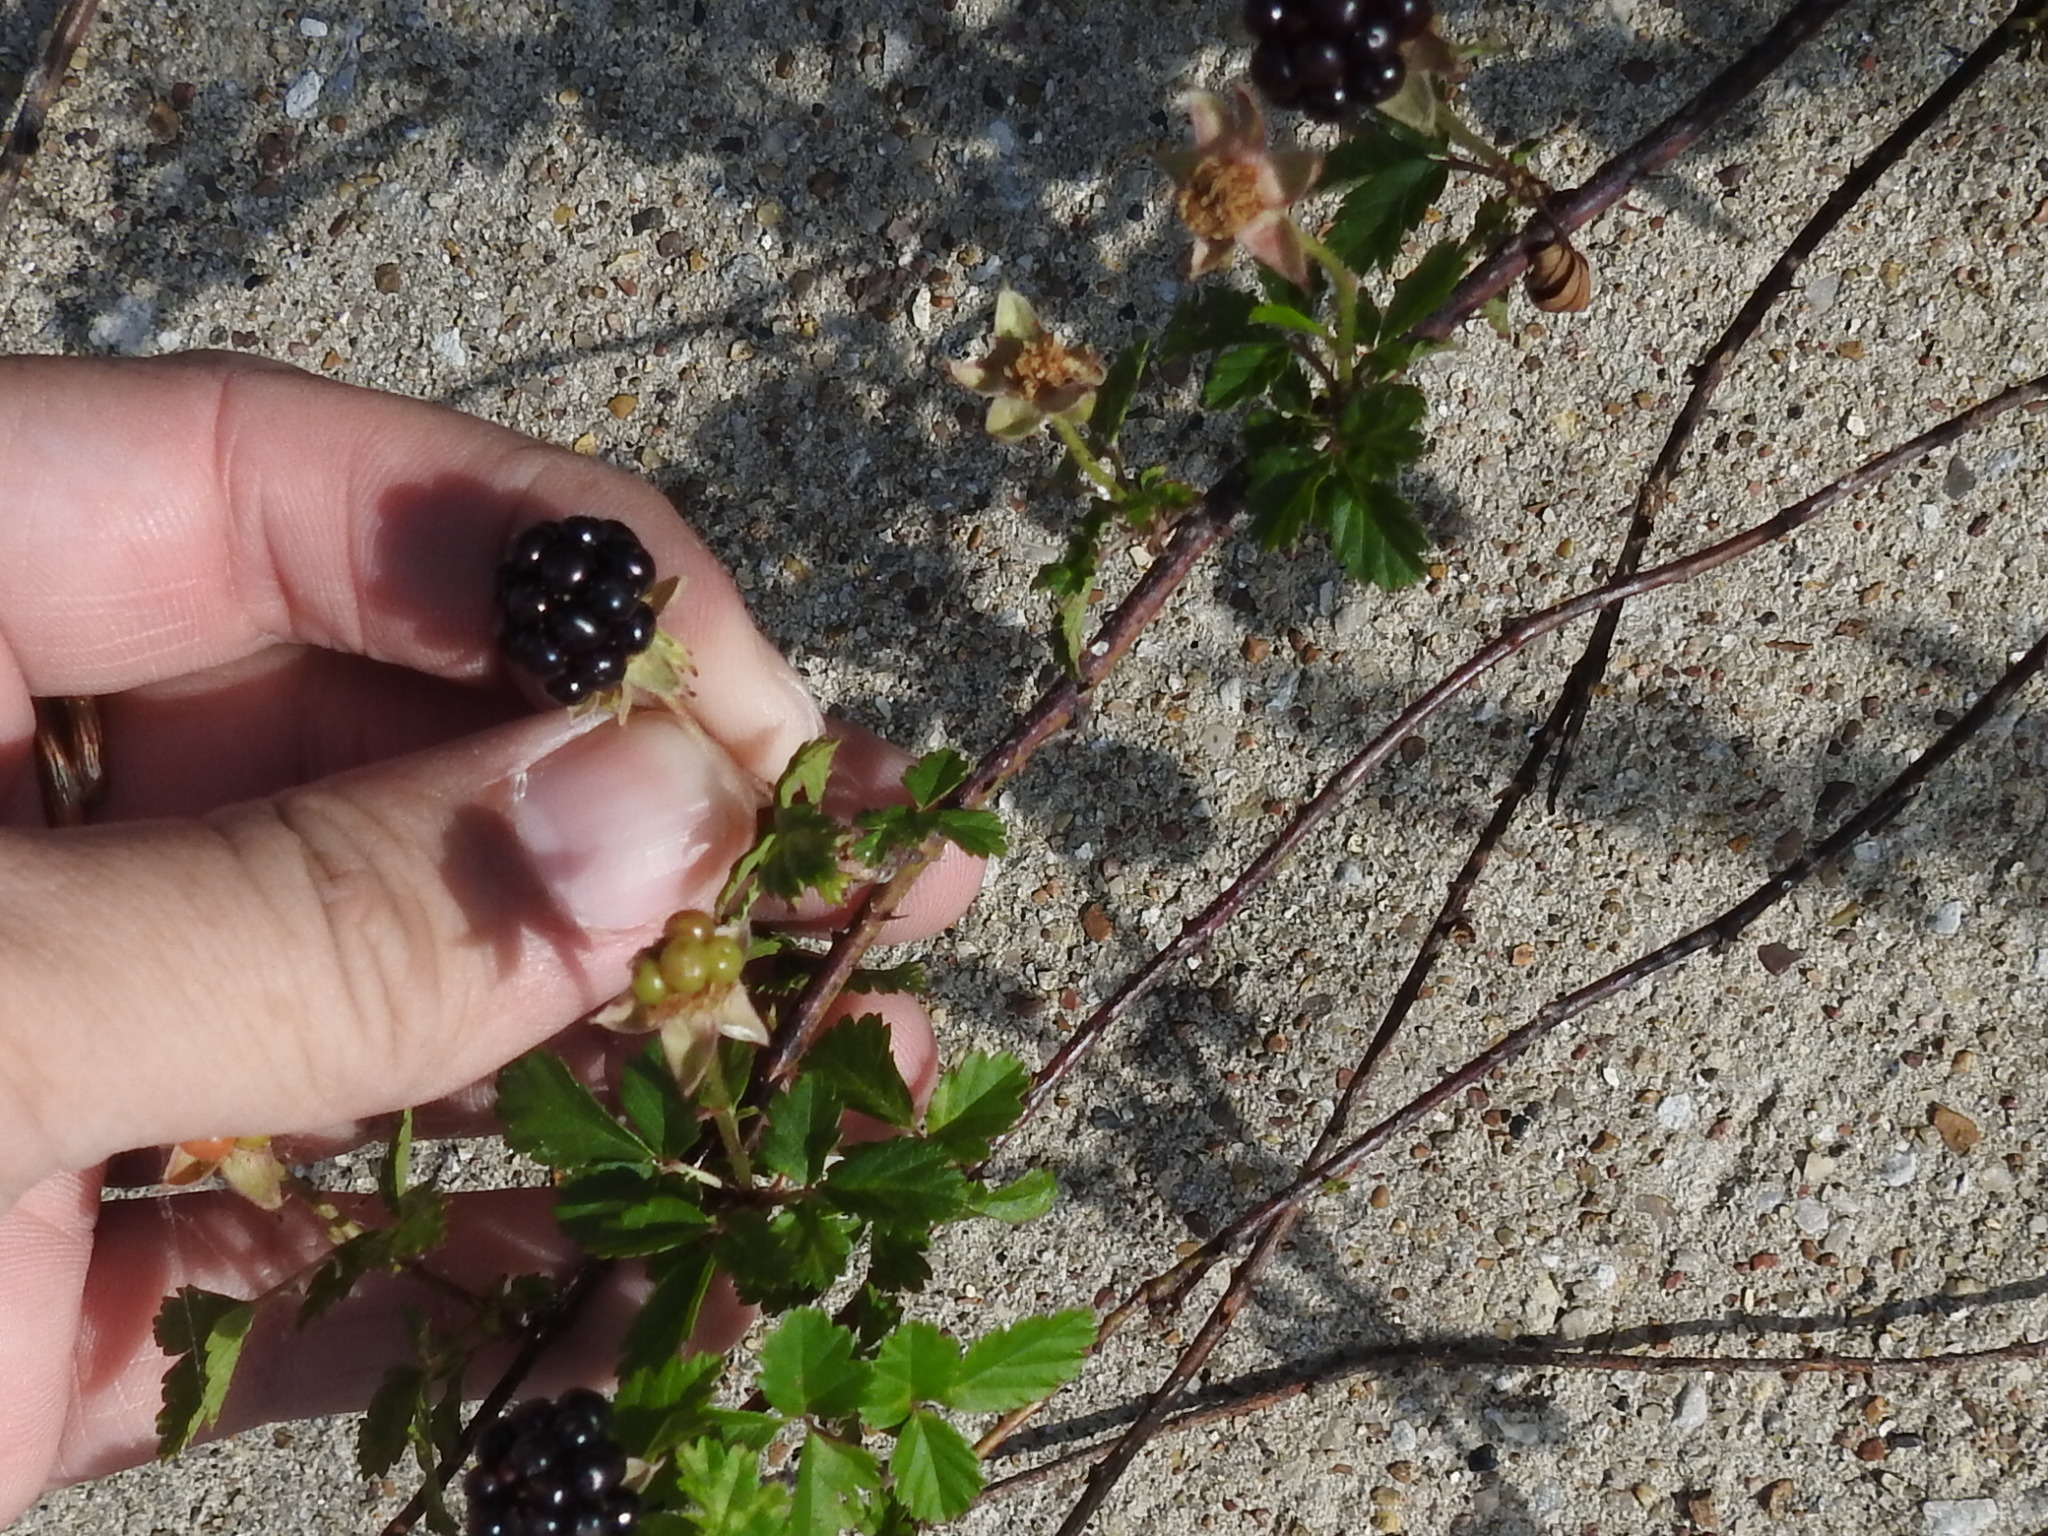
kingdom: Plantae
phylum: Tracheophyta
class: Magnoliopsida
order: Rosales
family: Rosaceae
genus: Rubus
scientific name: Rubus trivialis
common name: Southern dewberry
